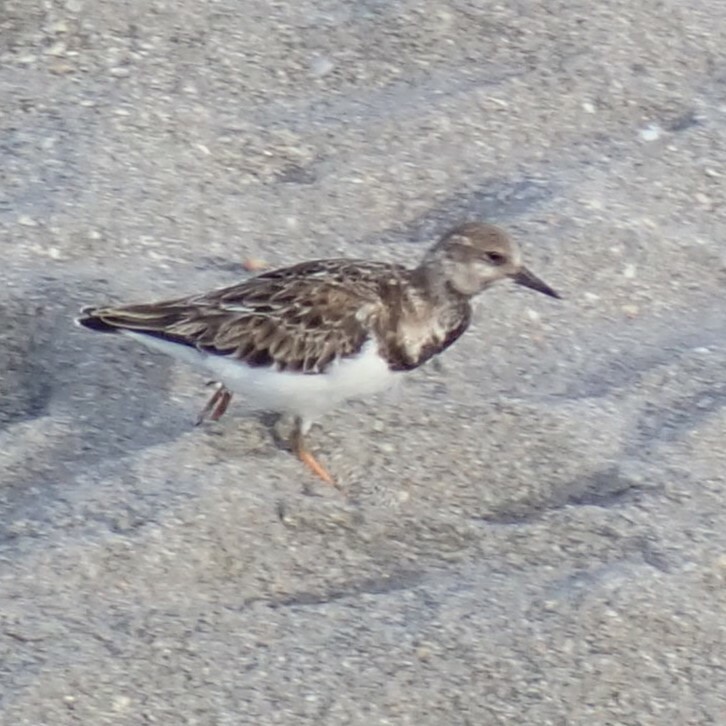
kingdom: Animalia
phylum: Chordata
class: Aves
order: Charadriiformes
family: Scolopacidae
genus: Arenaria
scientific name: Arenaria interpres
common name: Ruddy turnstone
